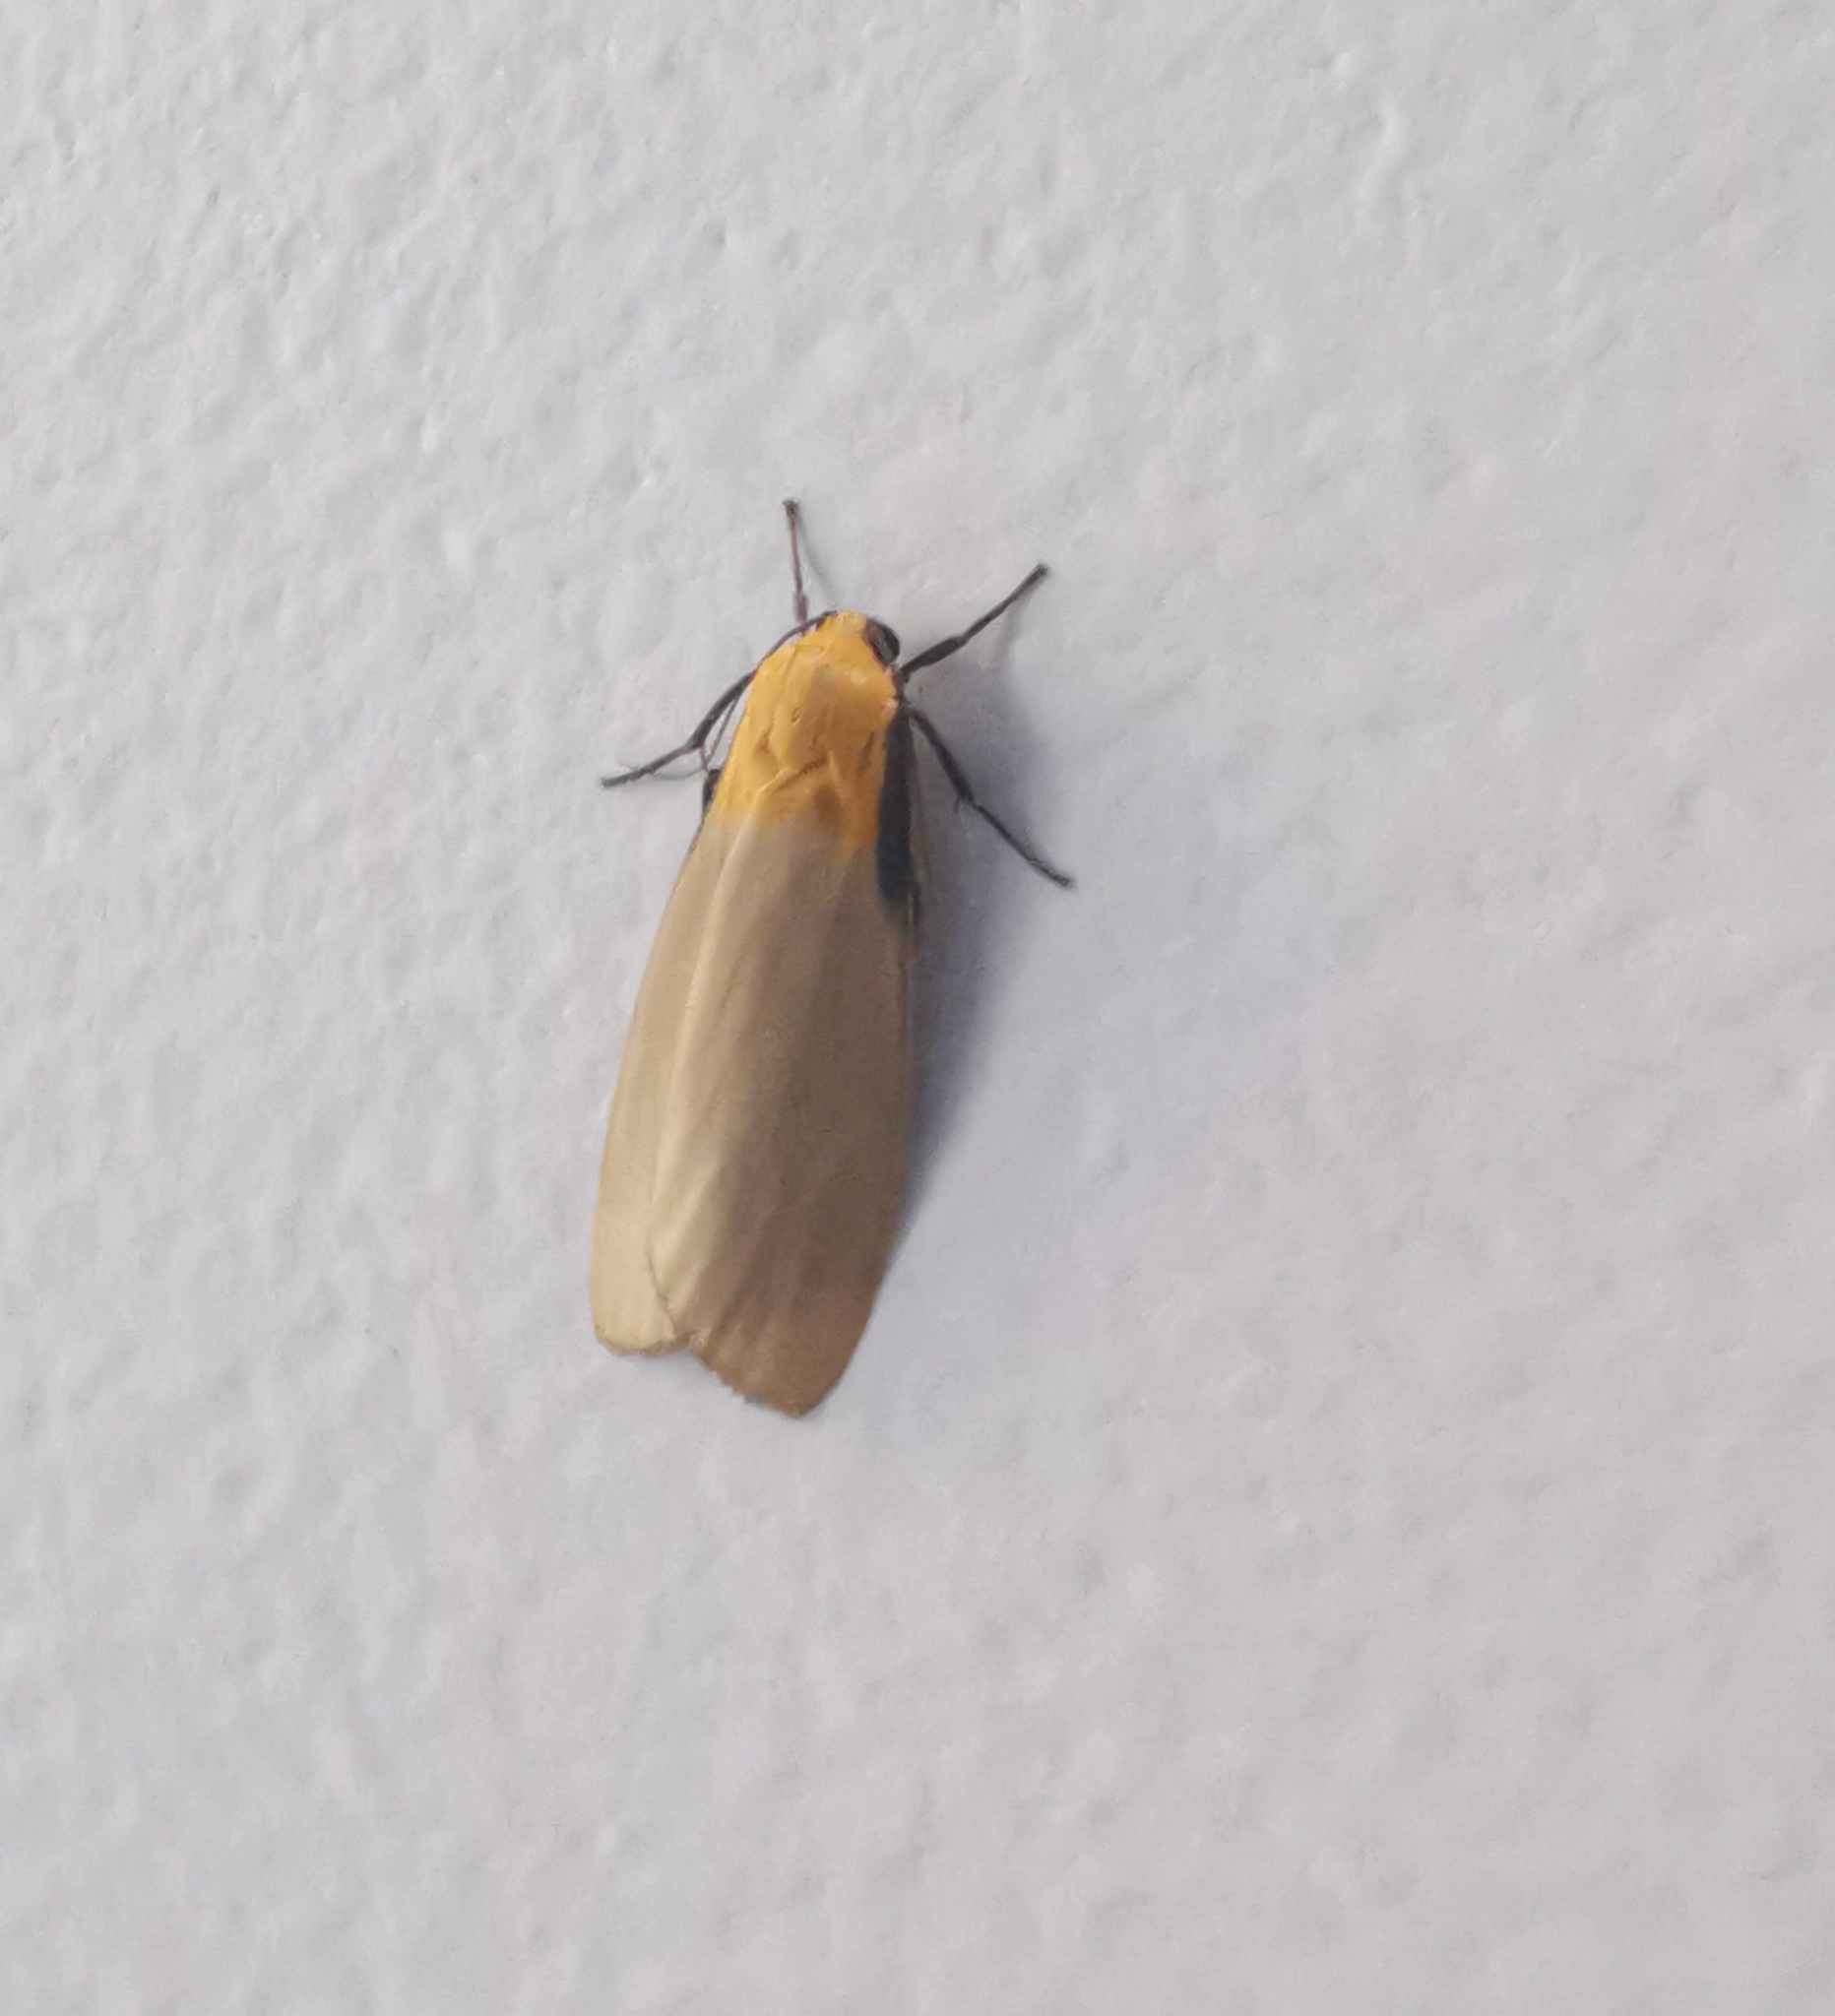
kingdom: Animalia
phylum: Arthropoda
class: Insecta
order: Lepidoptera
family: Erebidae
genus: Lithosia
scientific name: Lithosia quadra
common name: Four-spotted footman
